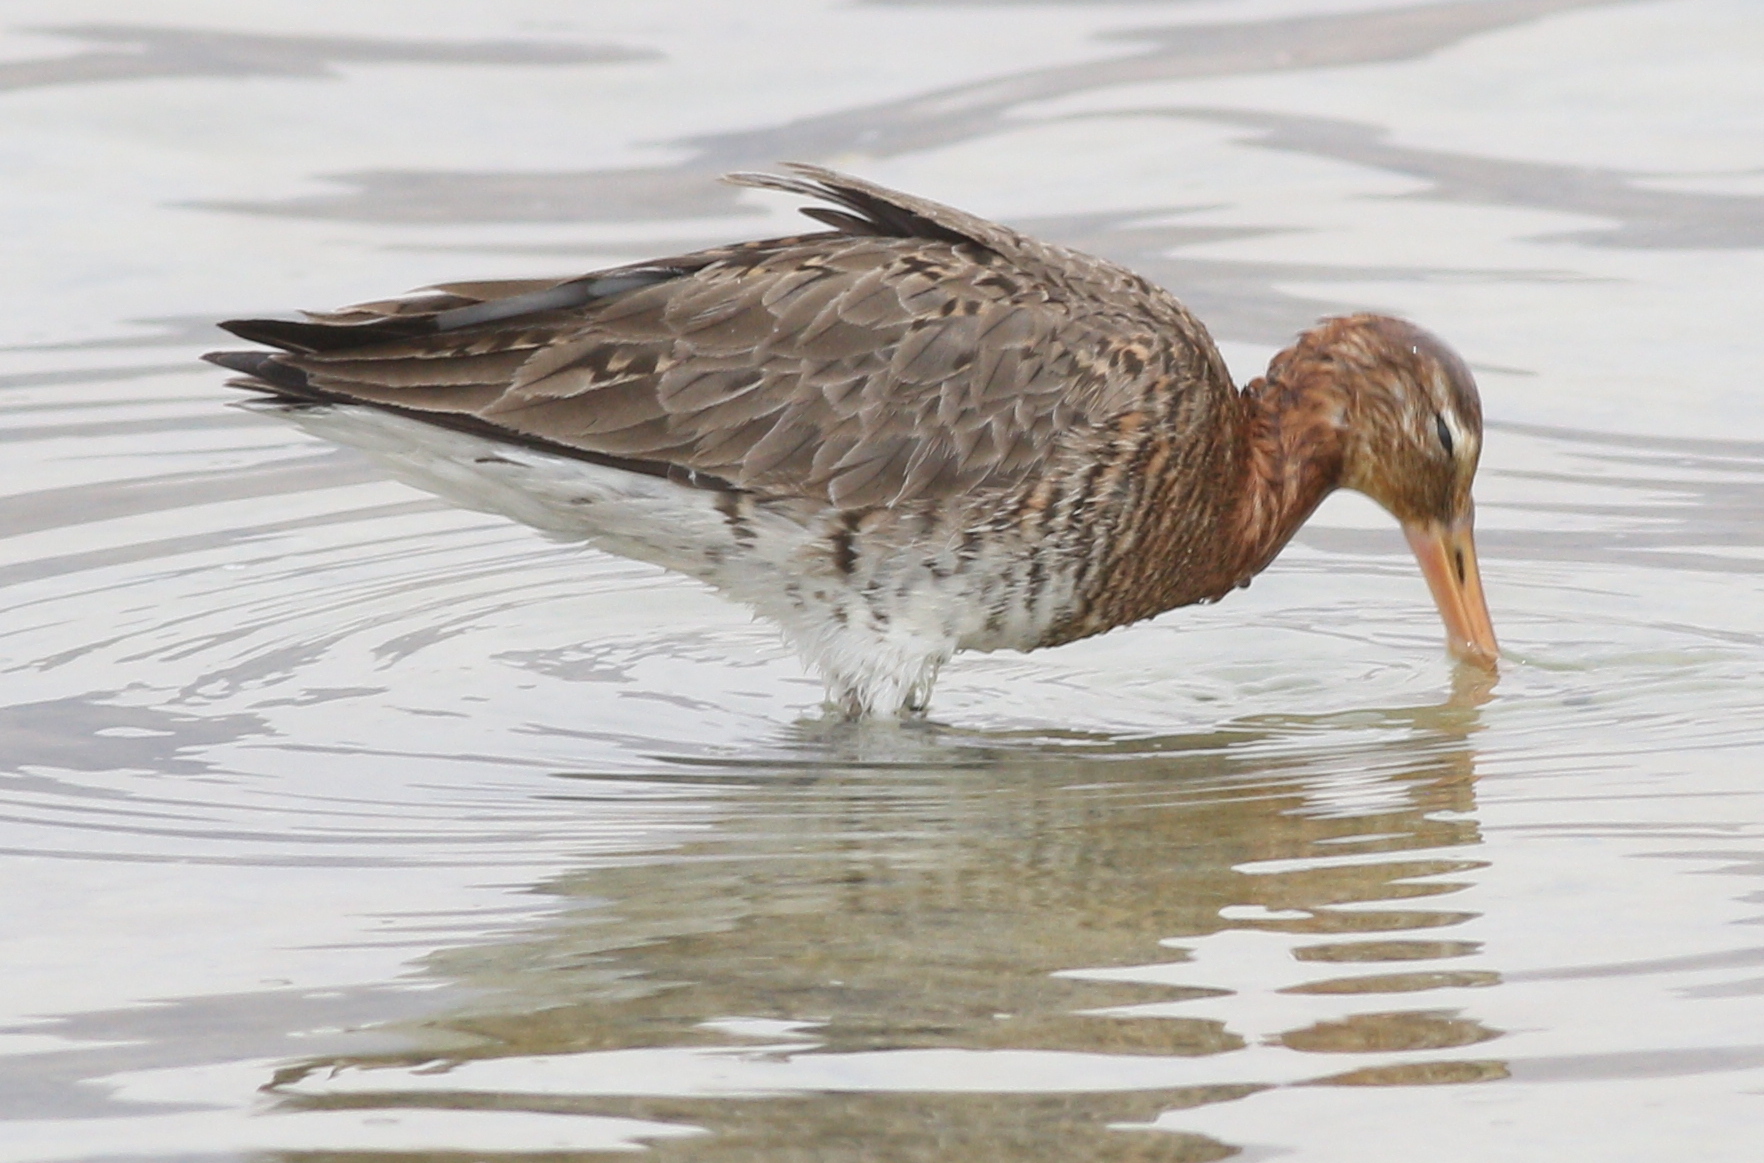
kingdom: Animalia
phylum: Chordata
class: Aves
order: Charadriiformes
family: Scolopacidae
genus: Limosa
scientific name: Limosa limosa
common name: Black-tailed godwit
